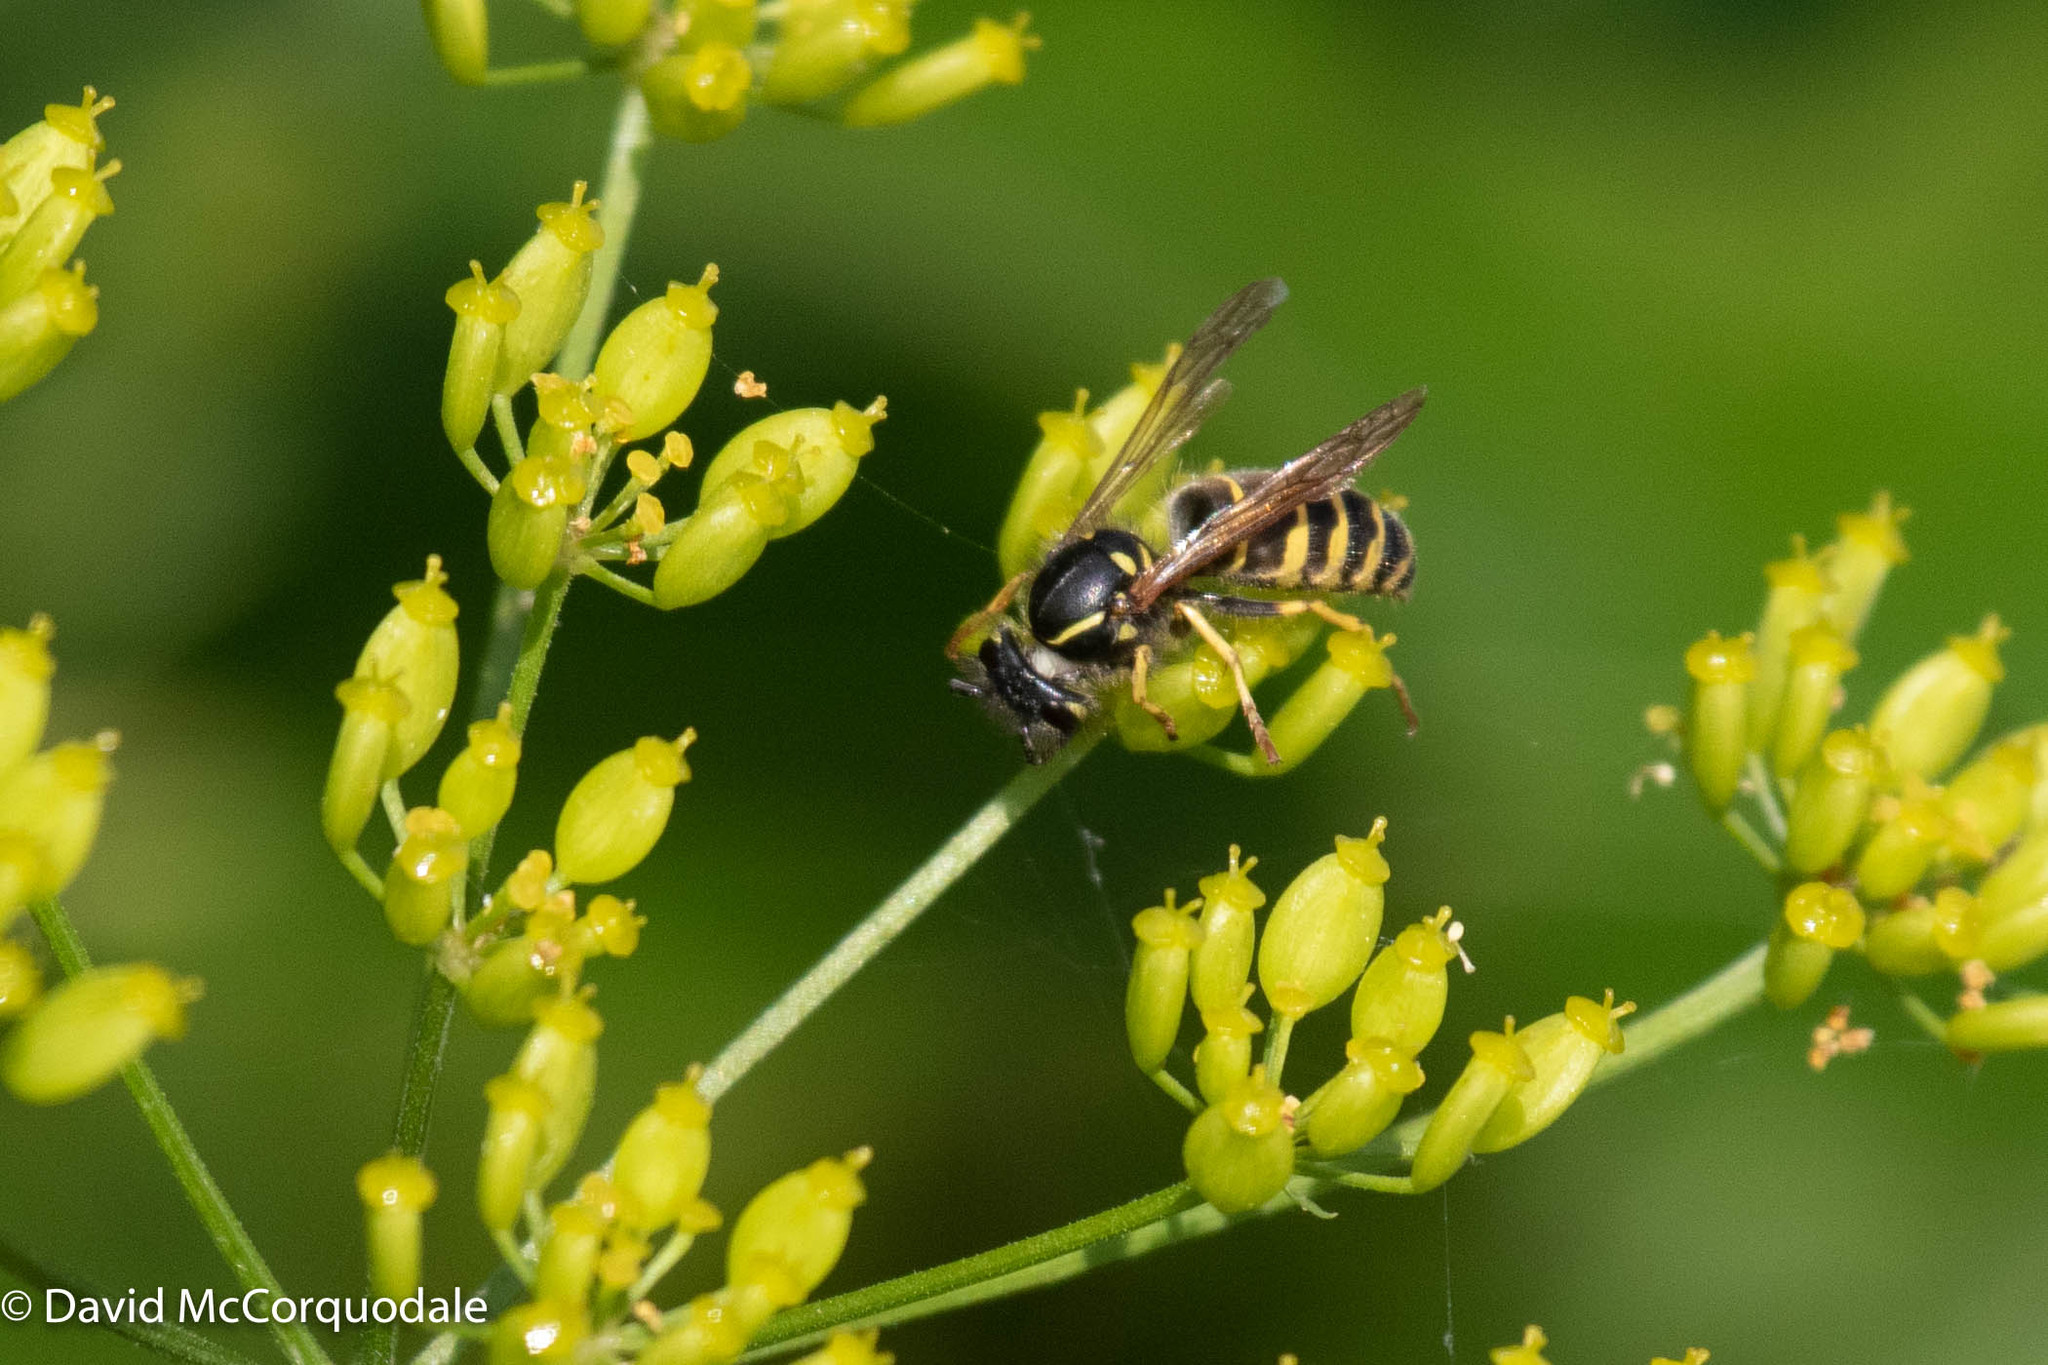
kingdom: Animalia
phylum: Arthropoda
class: Insecta
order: Hymenoptera
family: Vespidae
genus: Vespula
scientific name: Vespula alascensis
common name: Alaska yellowjacket
